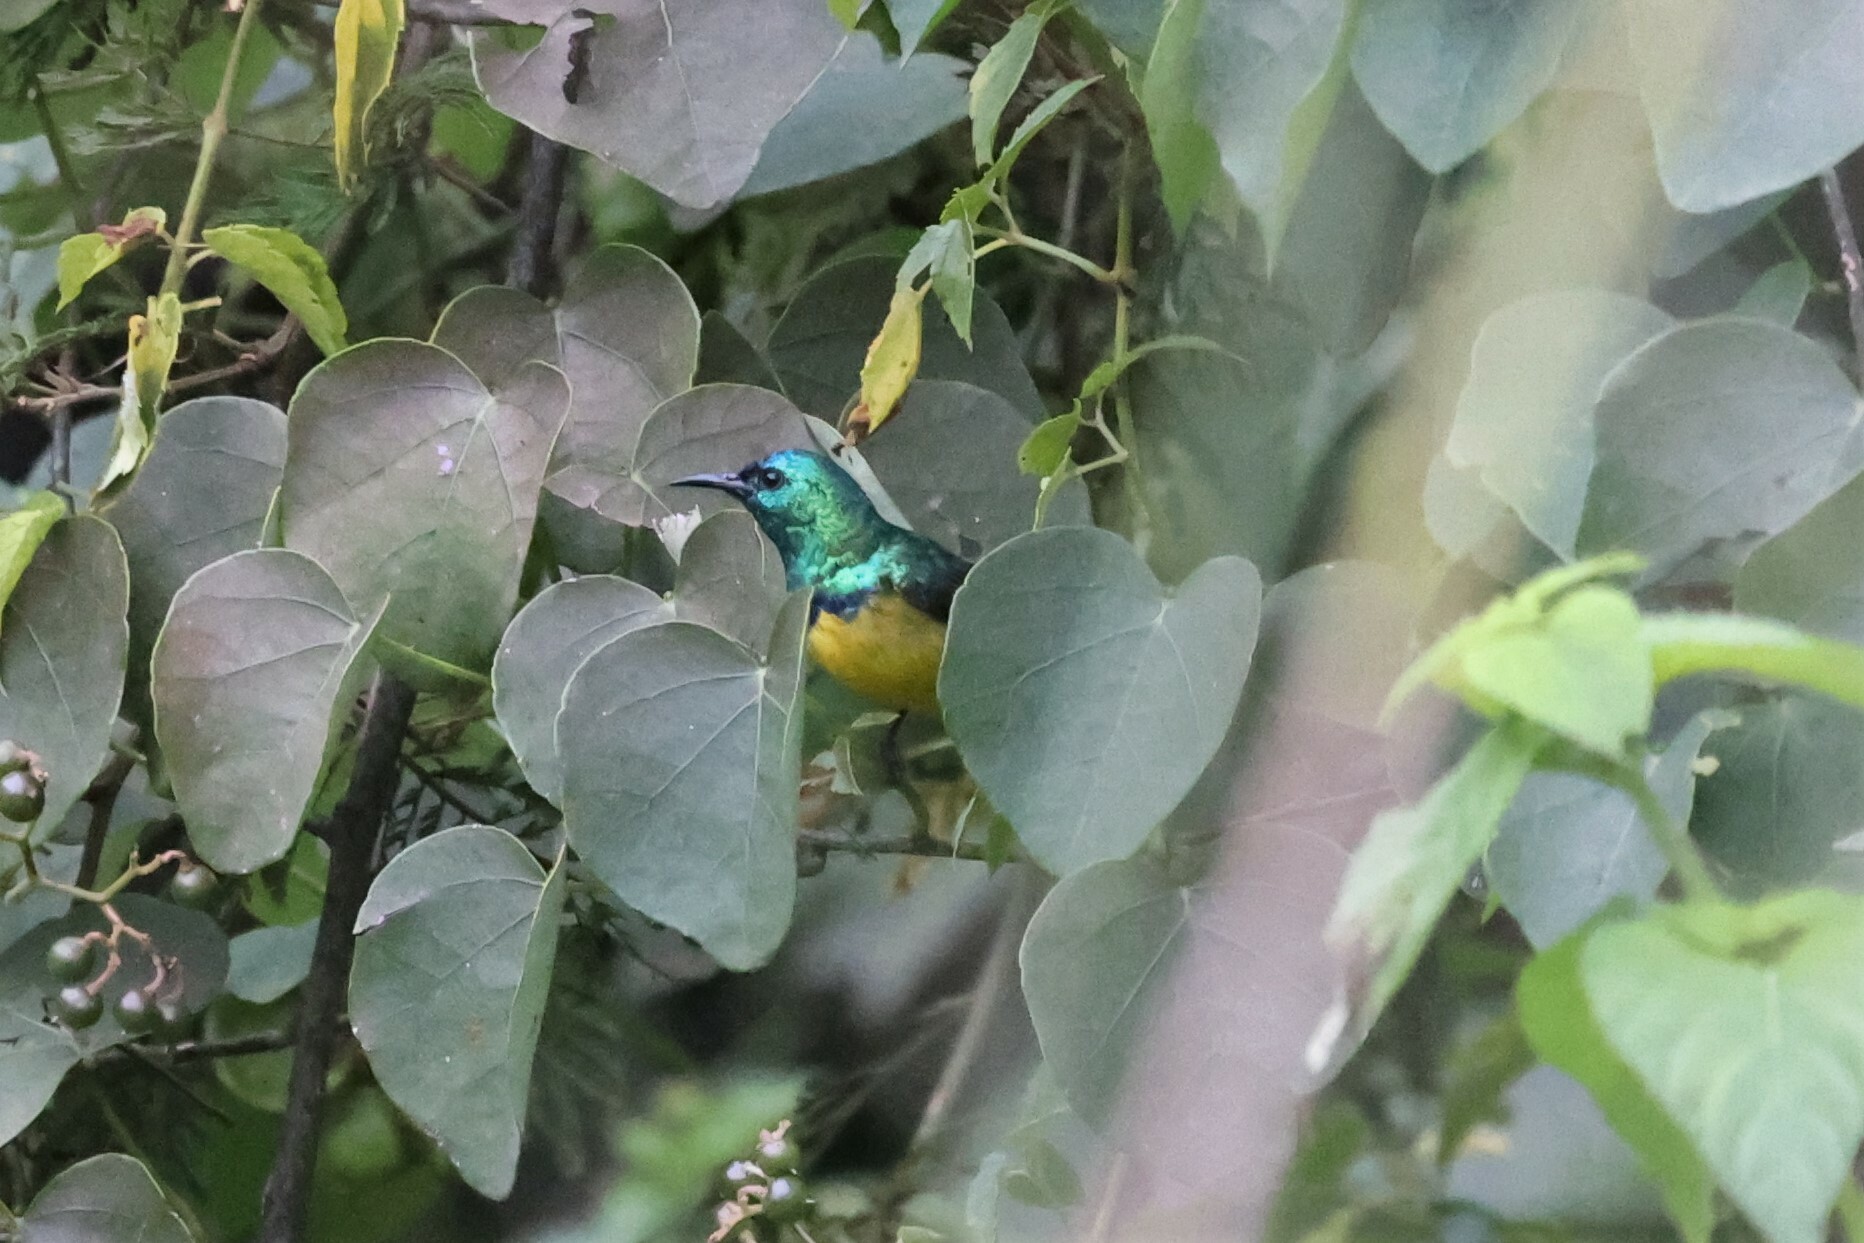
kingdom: Animalia
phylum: Chordata
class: Aves
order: Passeriformes
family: Nectariniidae
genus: Hedydipna
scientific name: Hedydipna collaris
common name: Collared sunbird
